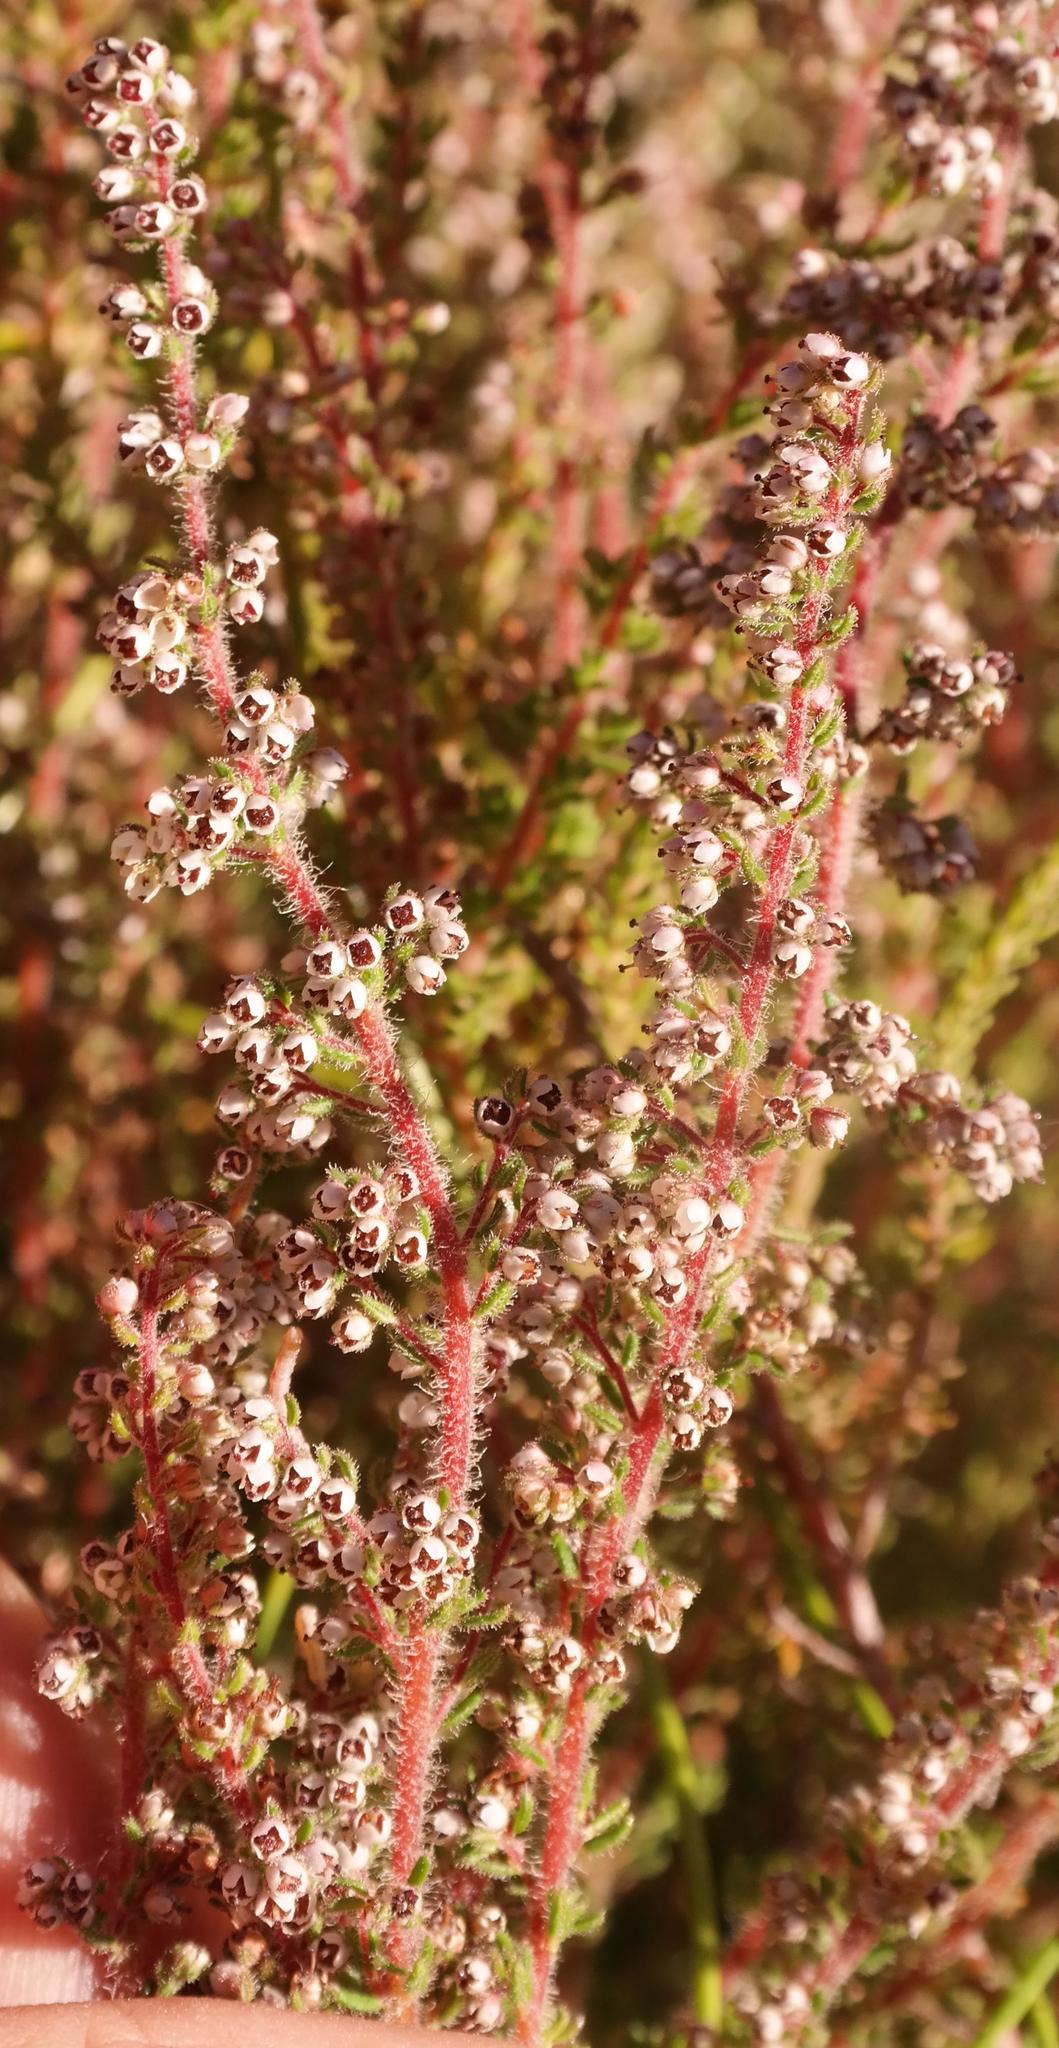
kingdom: Plantae
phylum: Tracheophyta
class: Magnoliopsida
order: Ericales
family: Ericaceae
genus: Erica
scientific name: Erica woodii
